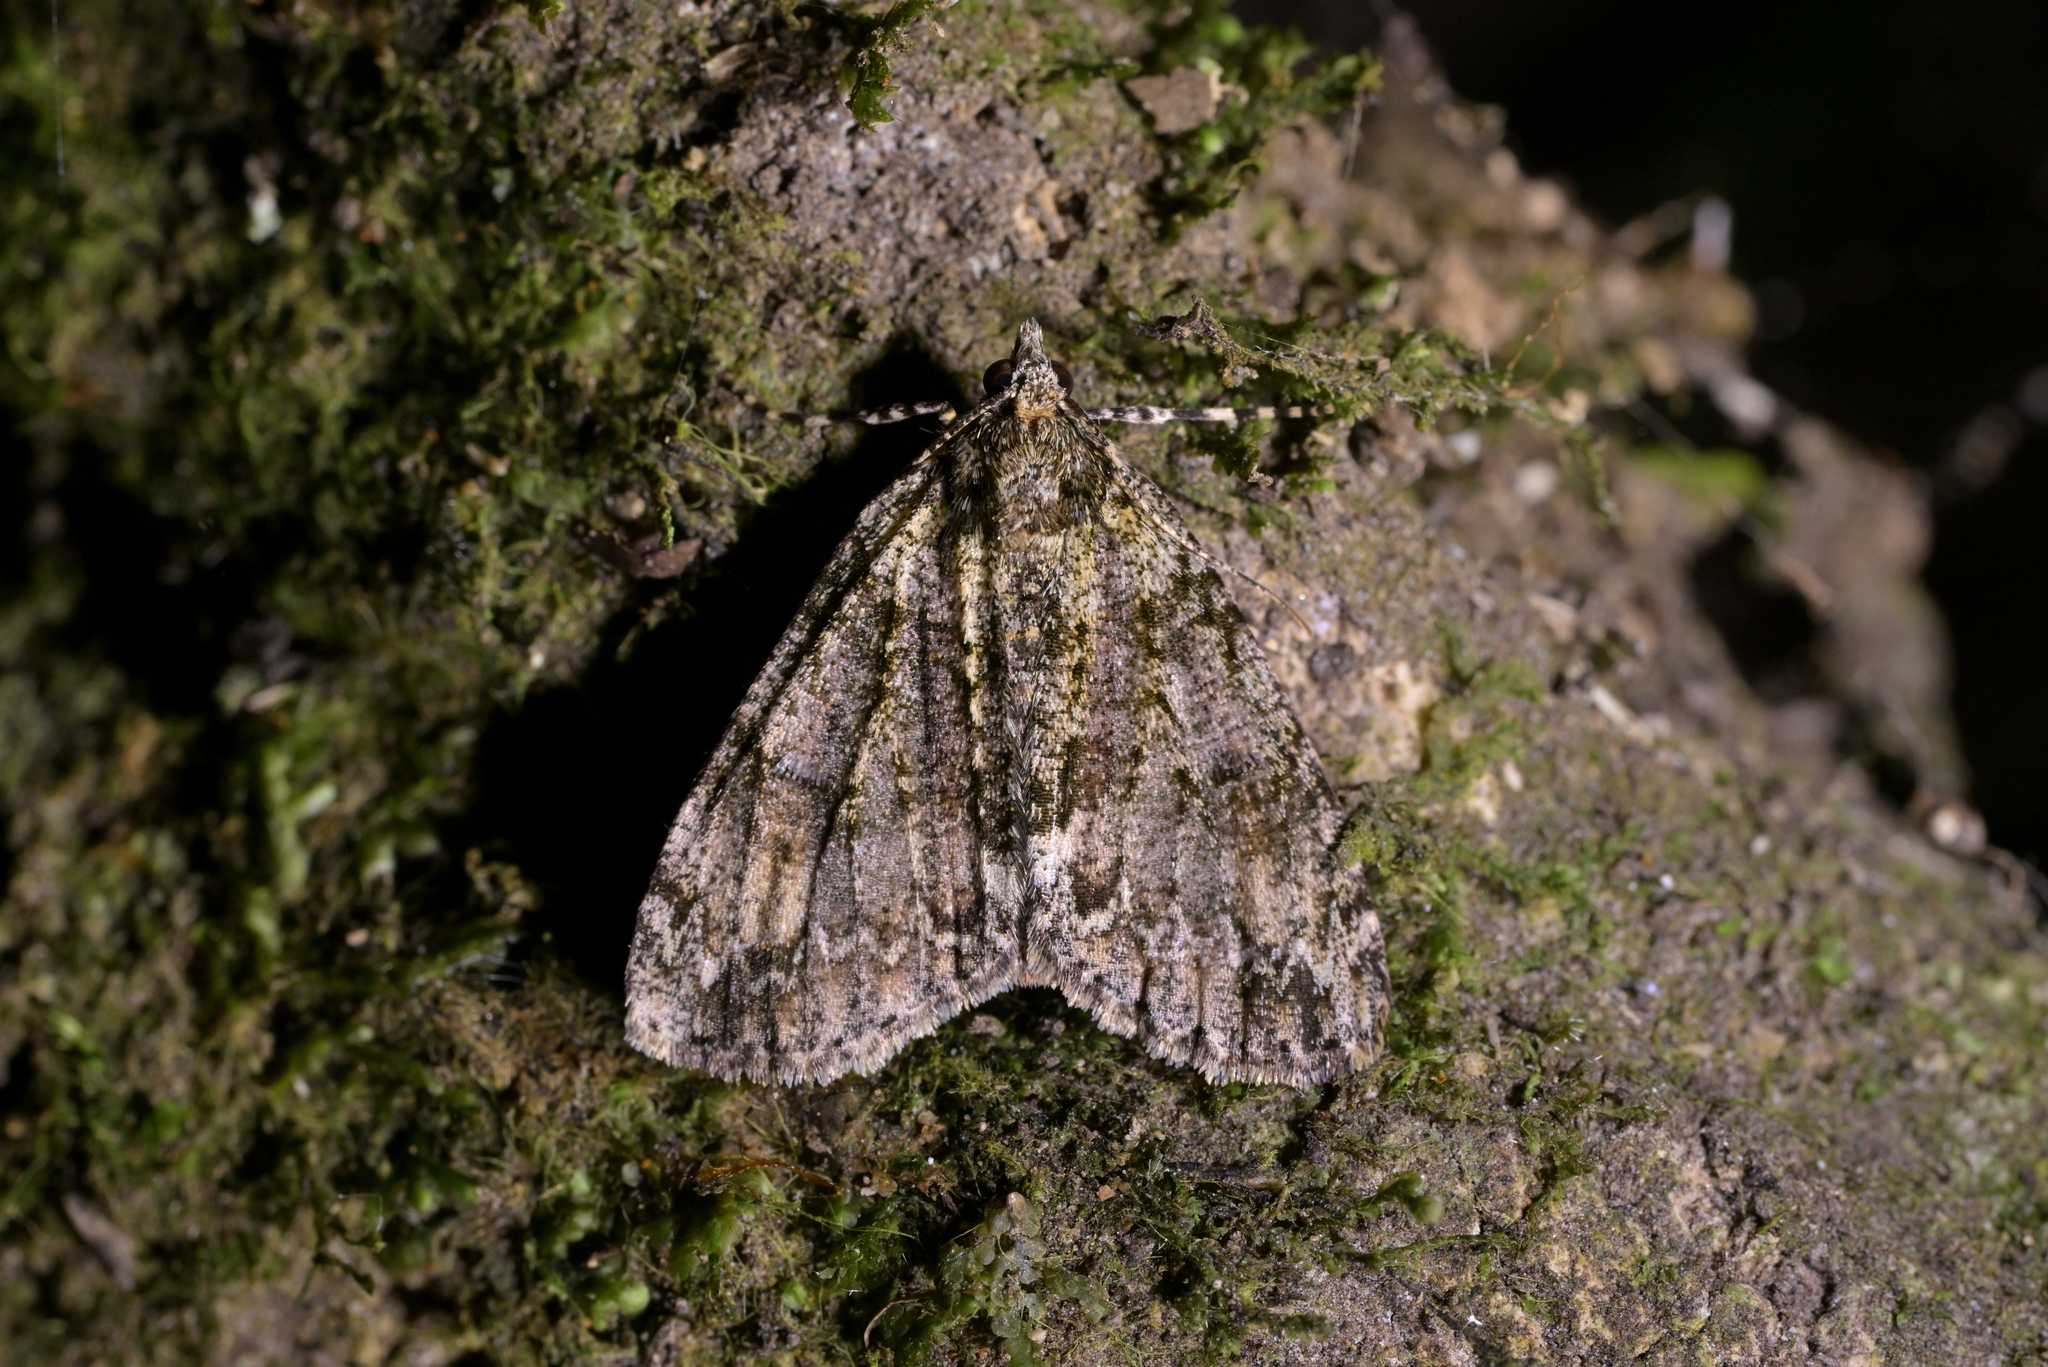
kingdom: Animalia
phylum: Arthropoda
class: Insecta
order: Lepidoptera
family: Geometridae
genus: Pseudocoremia
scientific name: Pseudocoremia suavis
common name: Common forest looper
